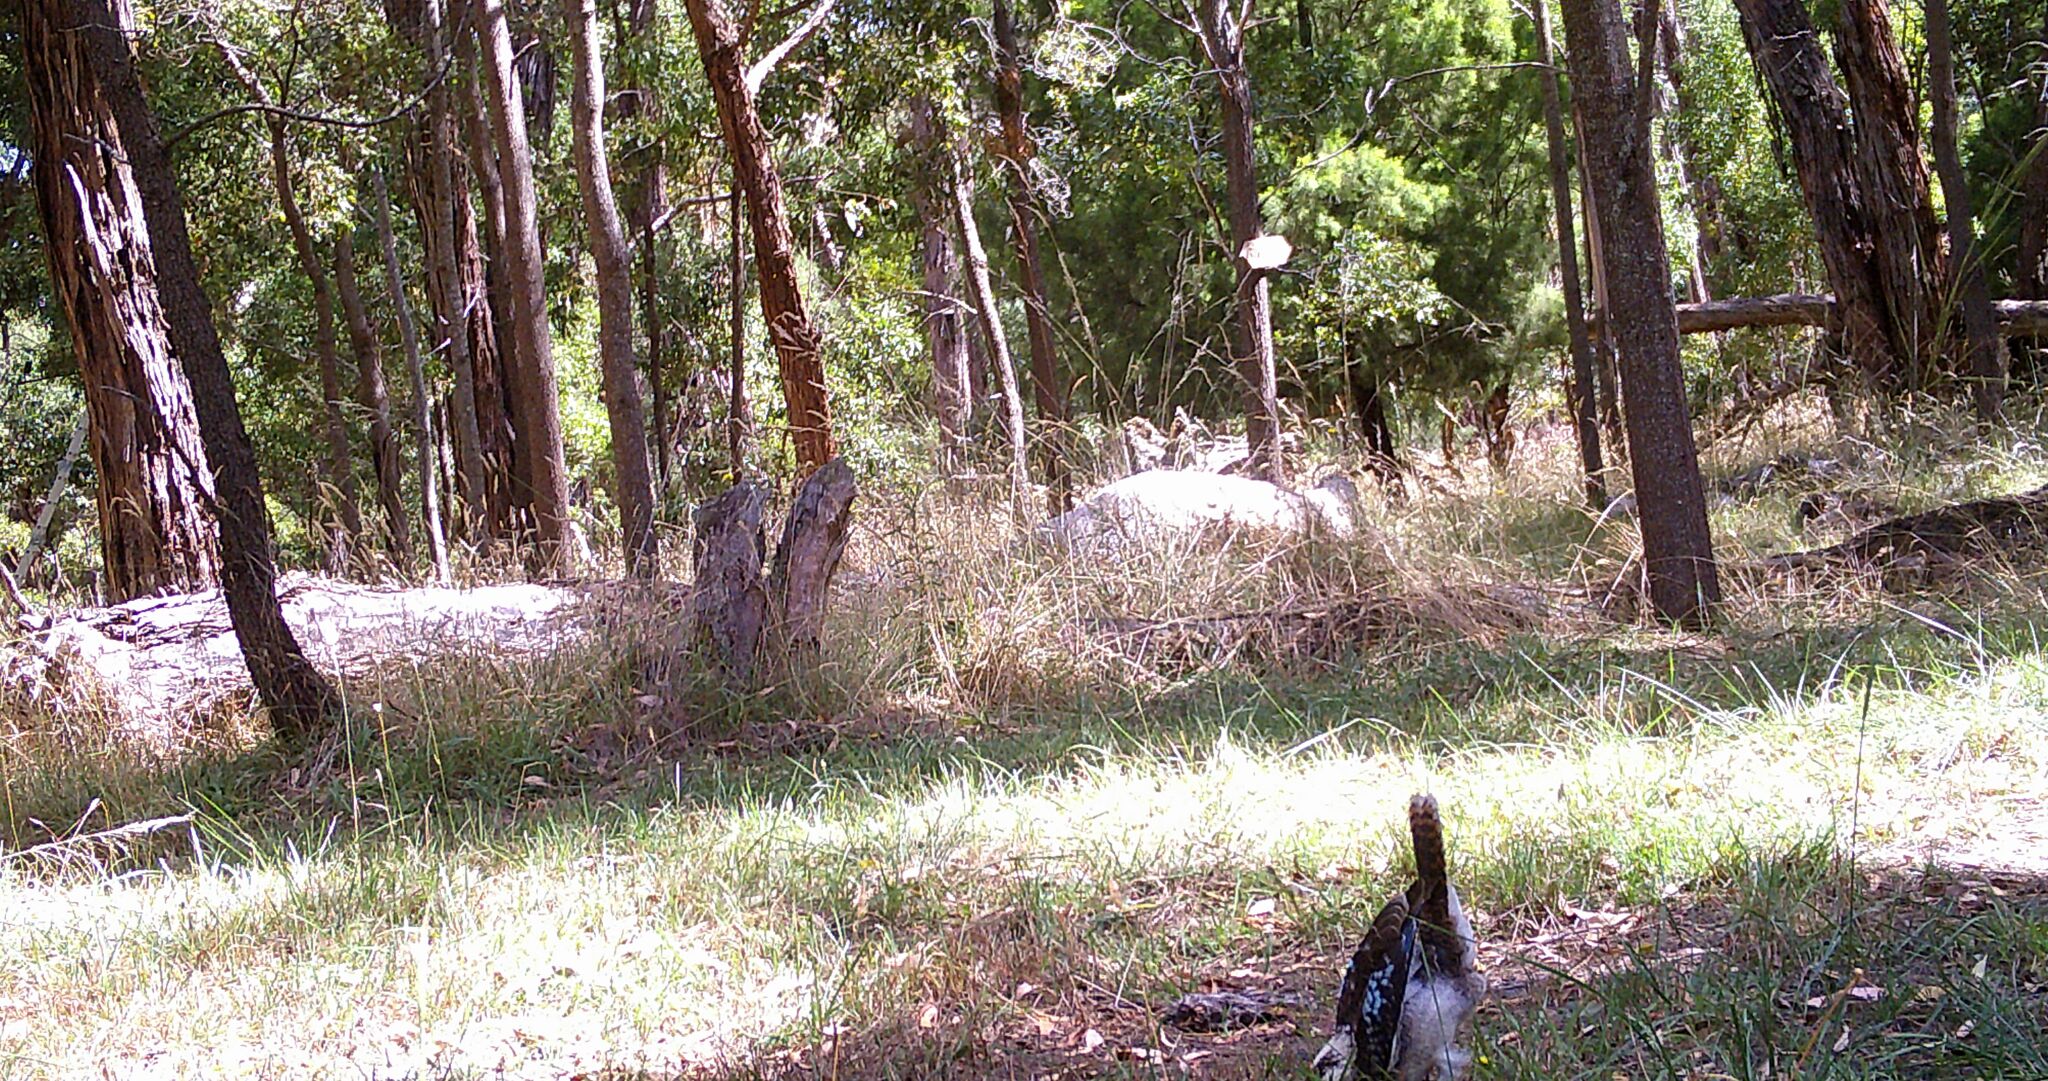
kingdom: Animalia
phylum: Chordata
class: Aves
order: Coraciiformes
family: Alcedinidae
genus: Dacelo
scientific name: Dacelo novaeguineae
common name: Laughing kookaburra
